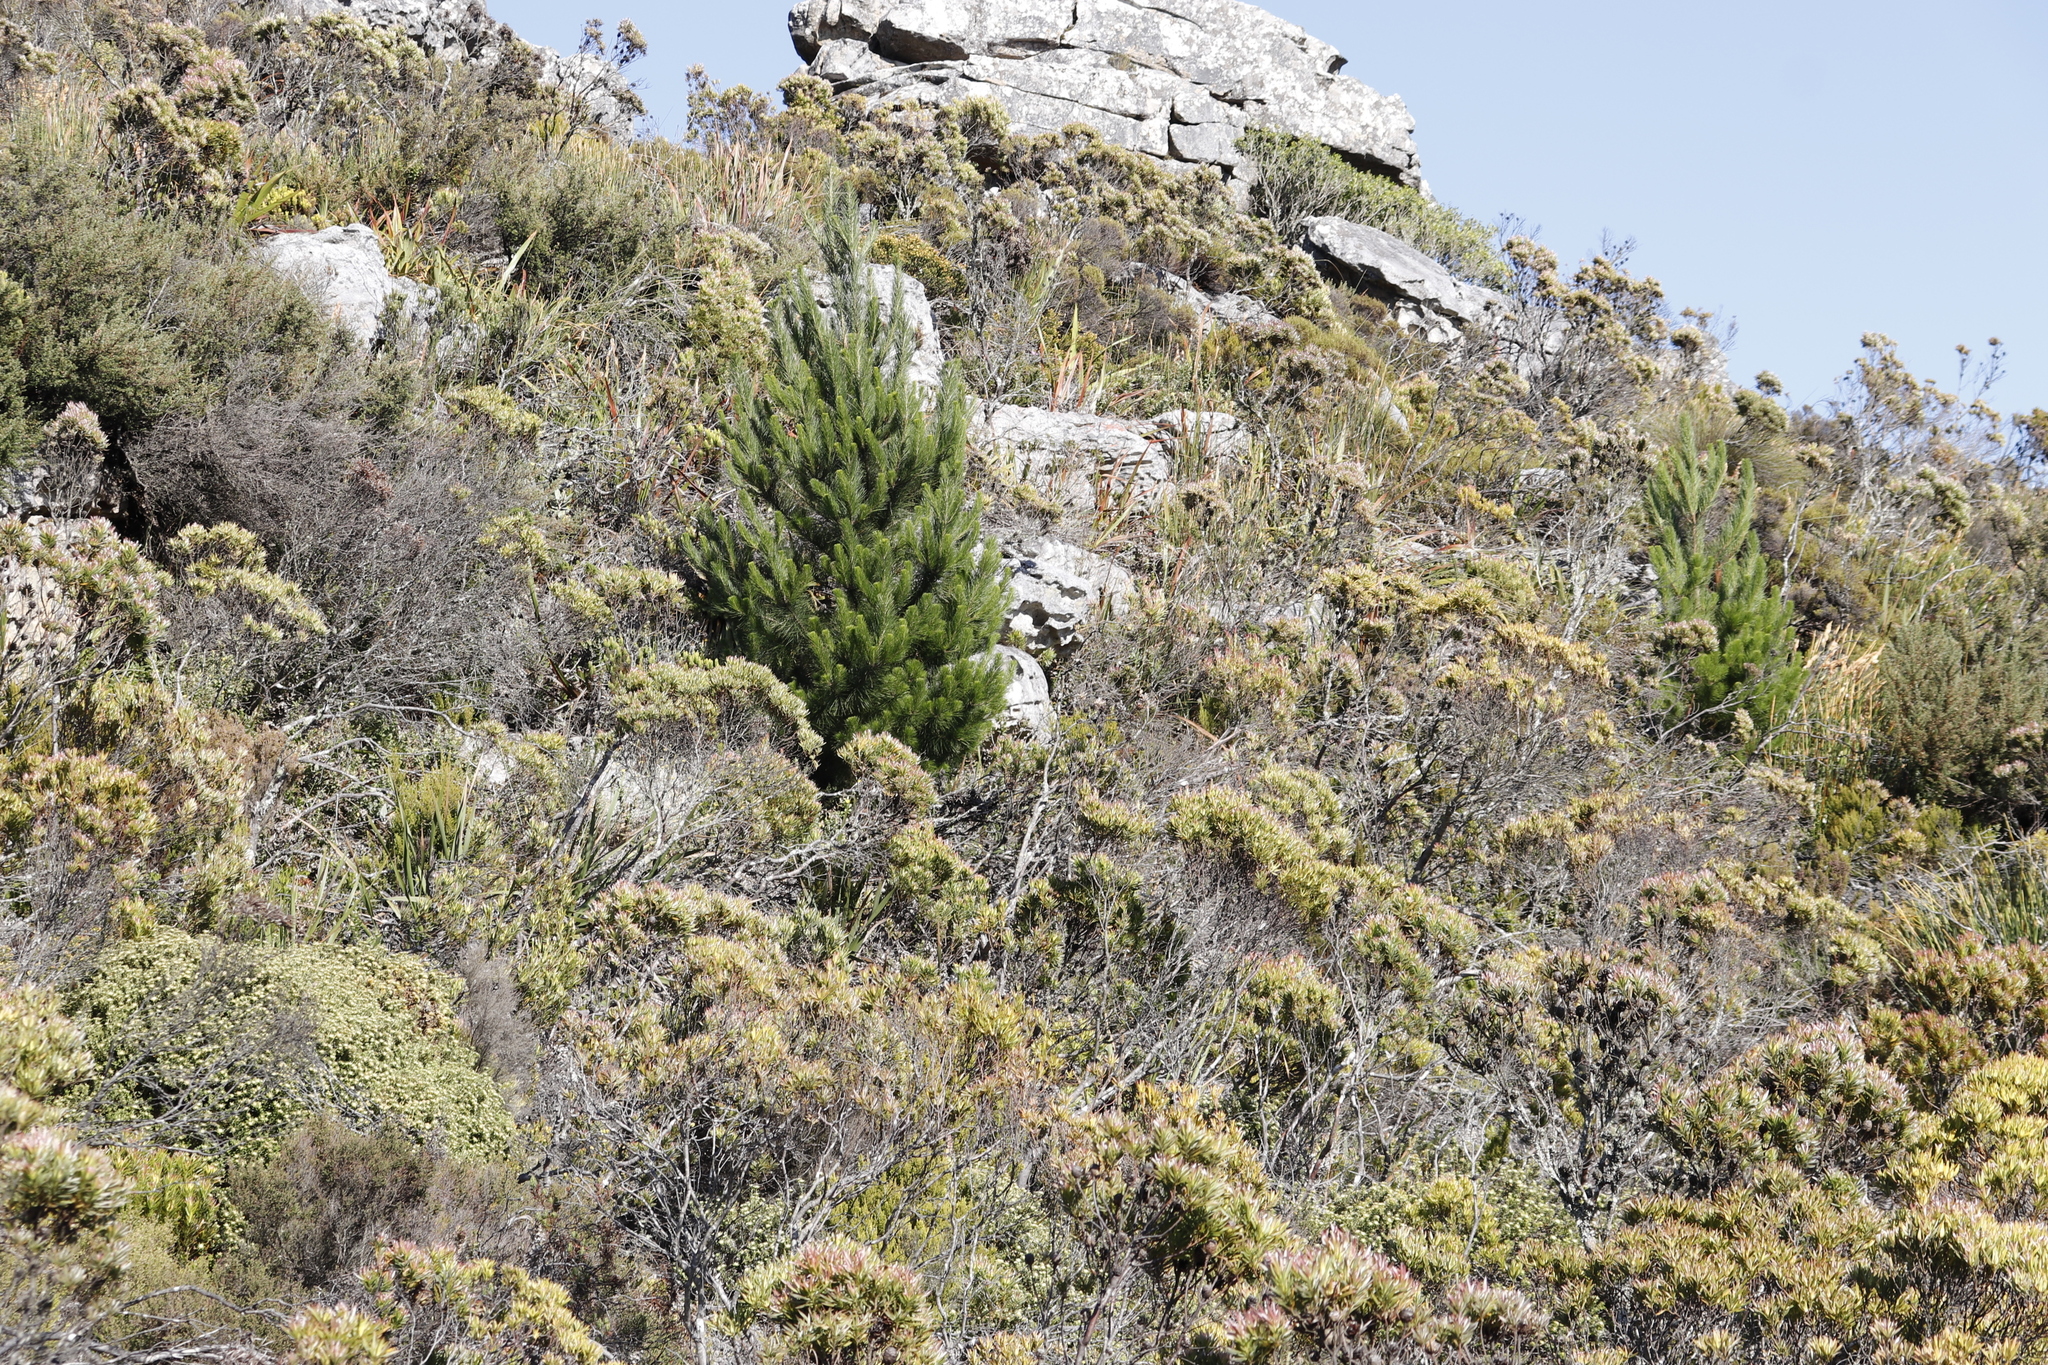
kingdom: Plantae
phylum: Tracheophyta
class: Pinopsida
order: Pinales
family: Pinaceae
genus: Pinus
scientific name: Pinus radiata
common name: Monterey pine
